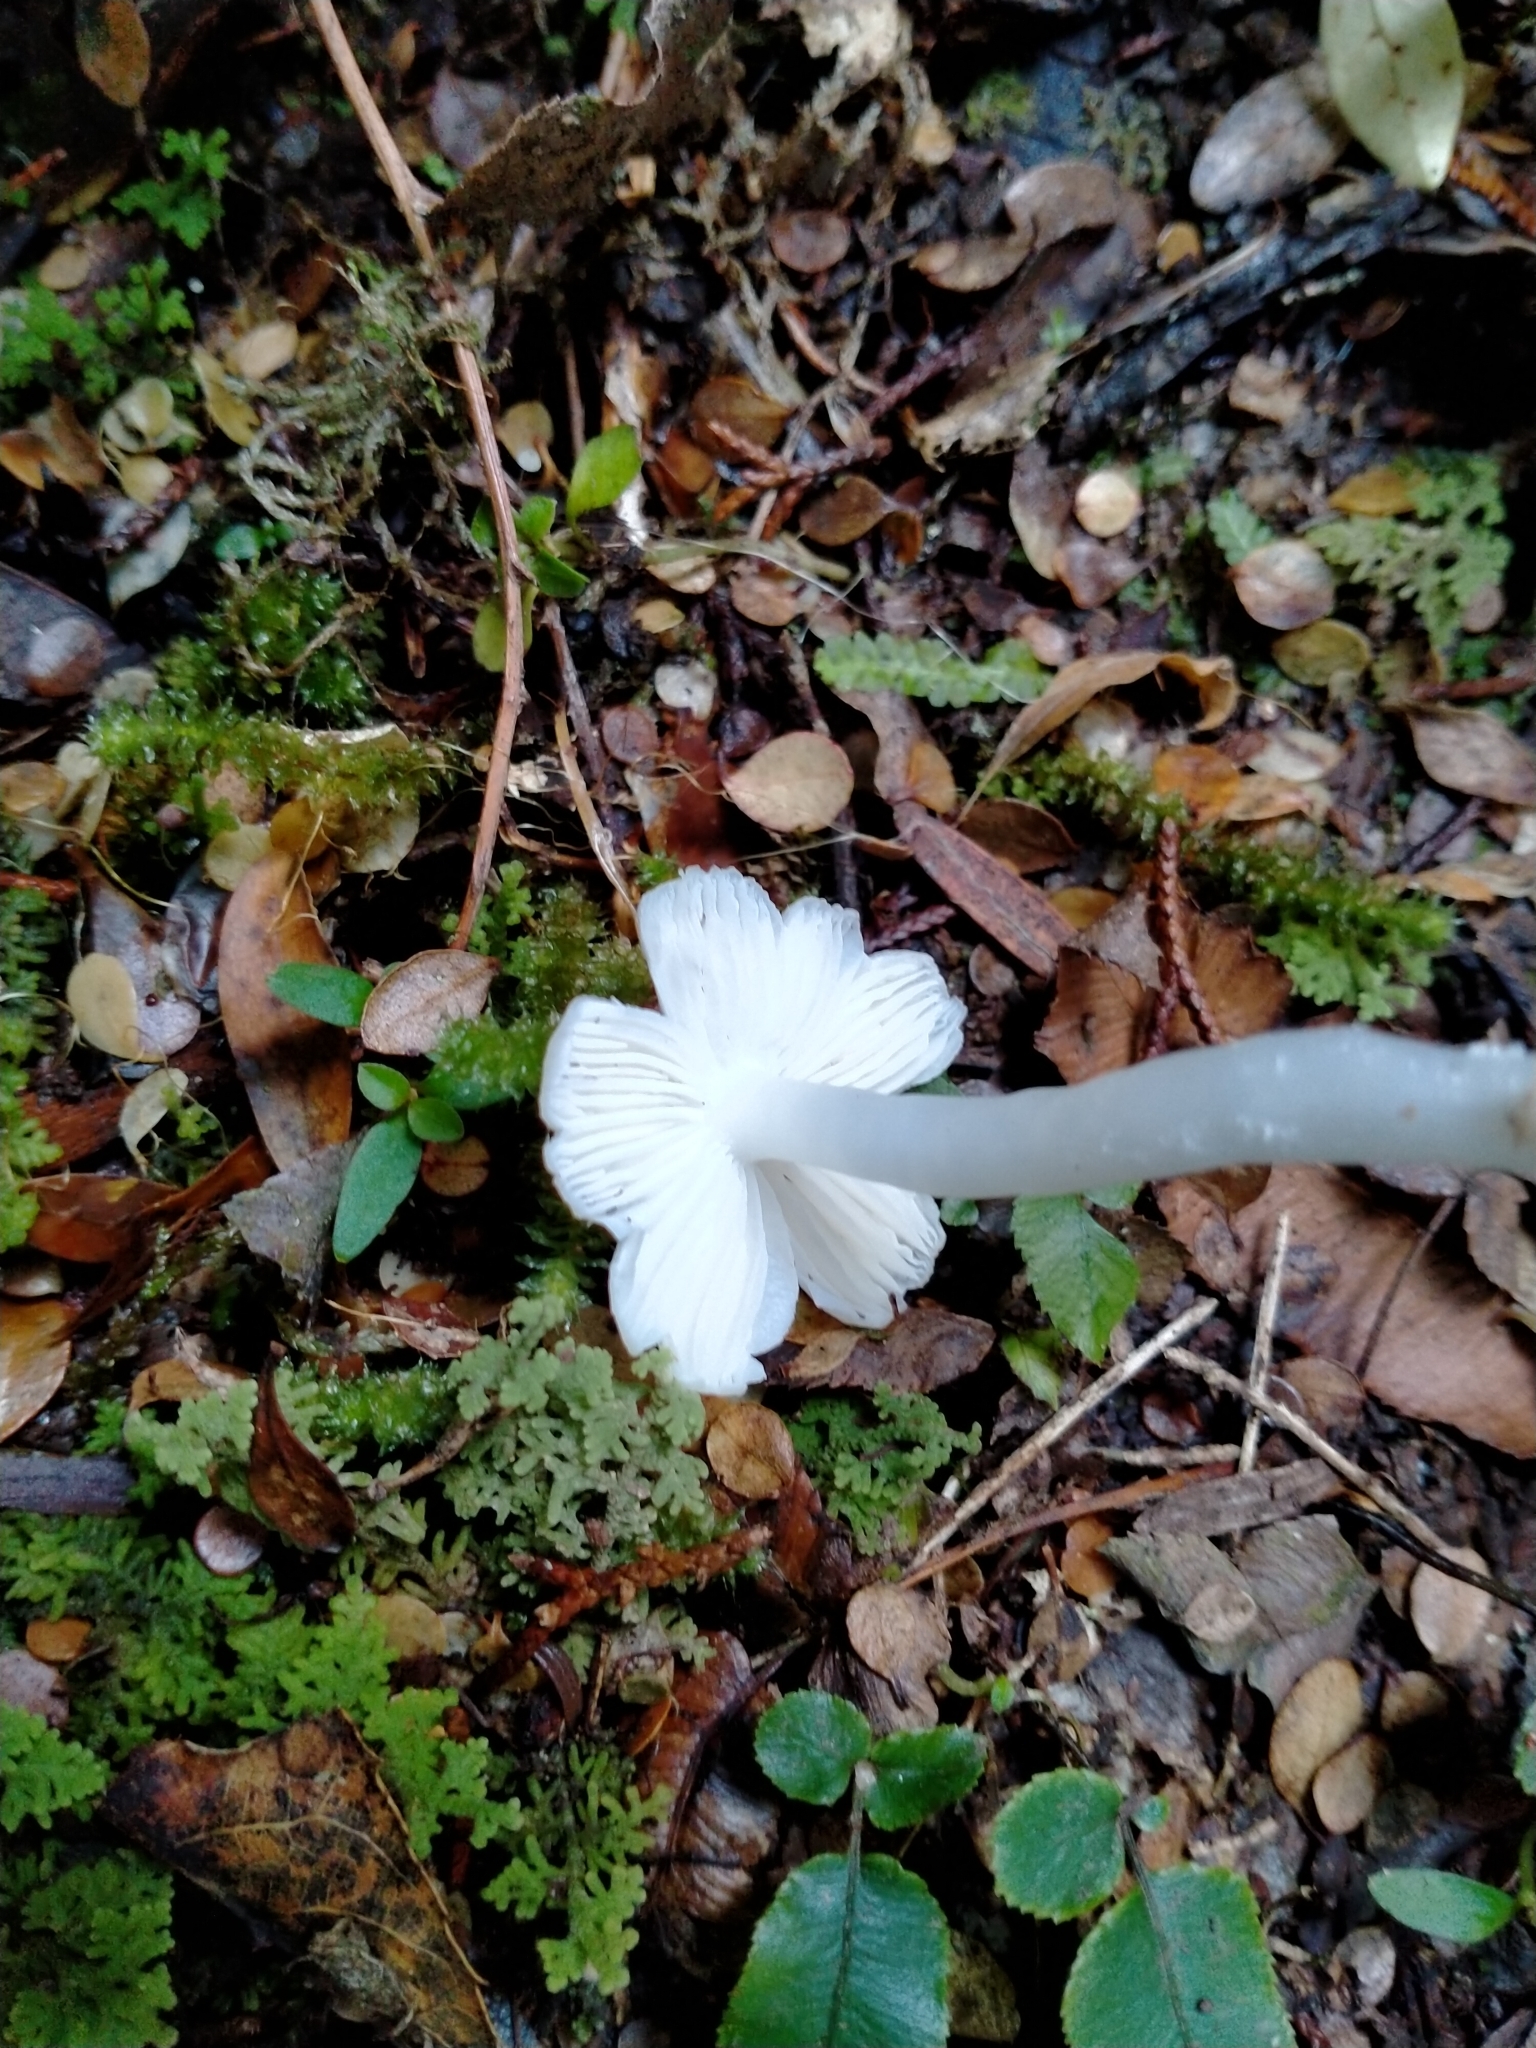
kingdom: Fungi
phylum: Basidiomycota
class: Agaricomycetes
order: Agaricales
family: Hygrophoraceae
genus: Humidicutis
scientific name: Humidicutis mavis
